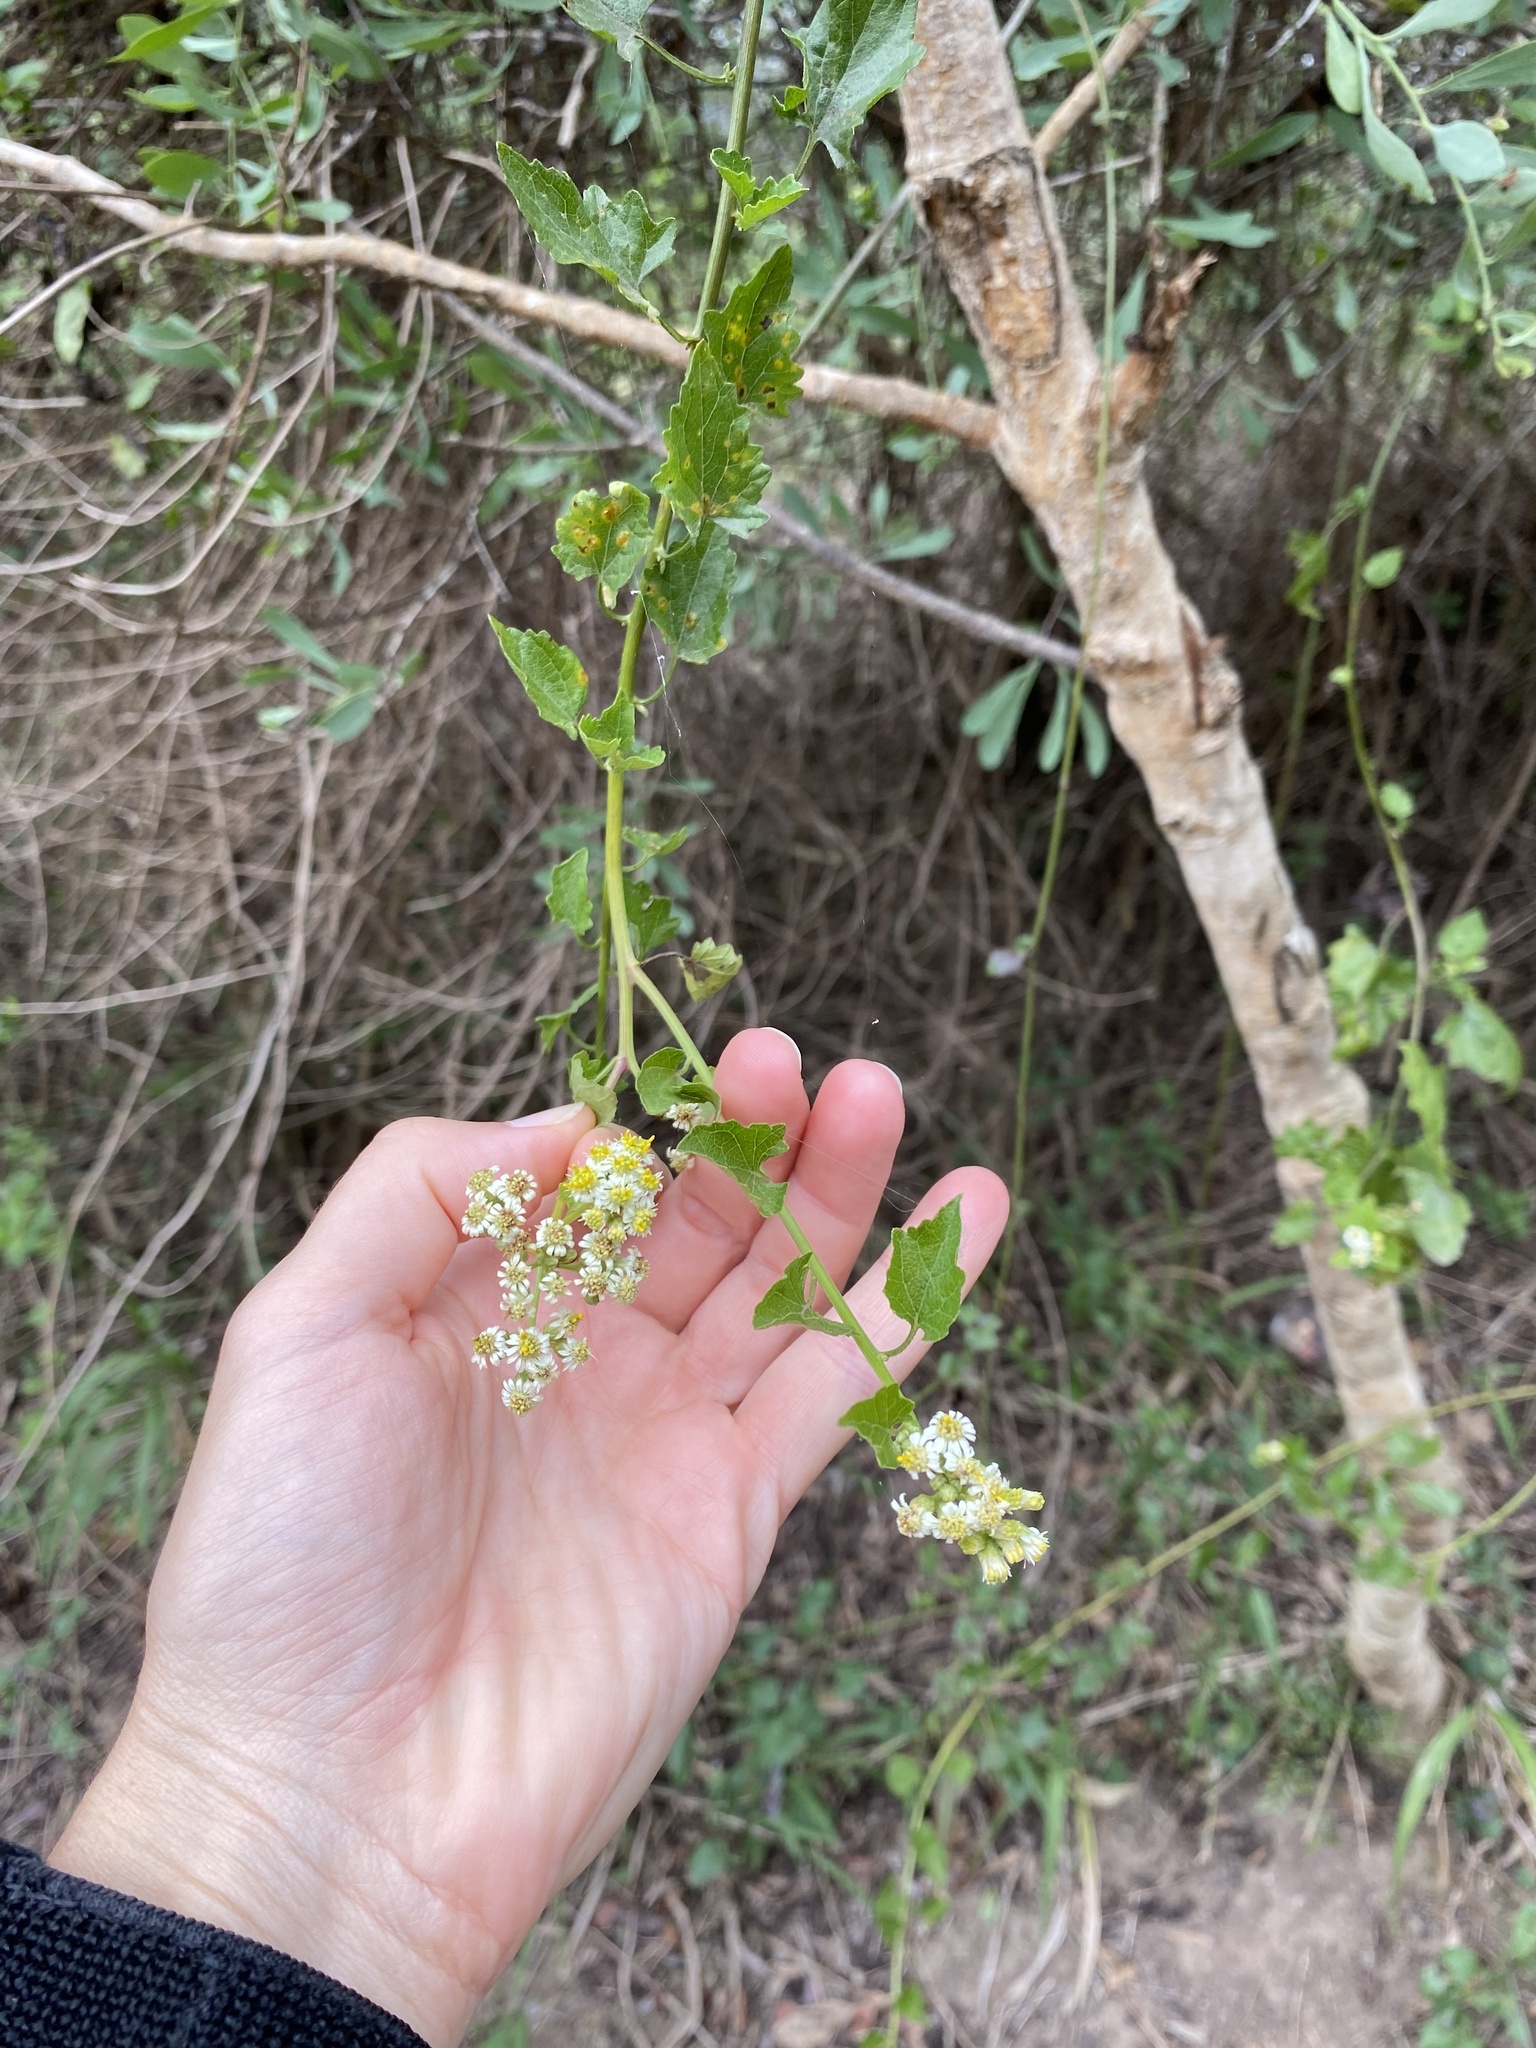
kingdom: Plantae
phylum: Tracheophyta
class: Magnoliopsida
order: Asterales
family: Asteraceae
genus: Microglossa
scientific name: Microglossa mespilifolia
